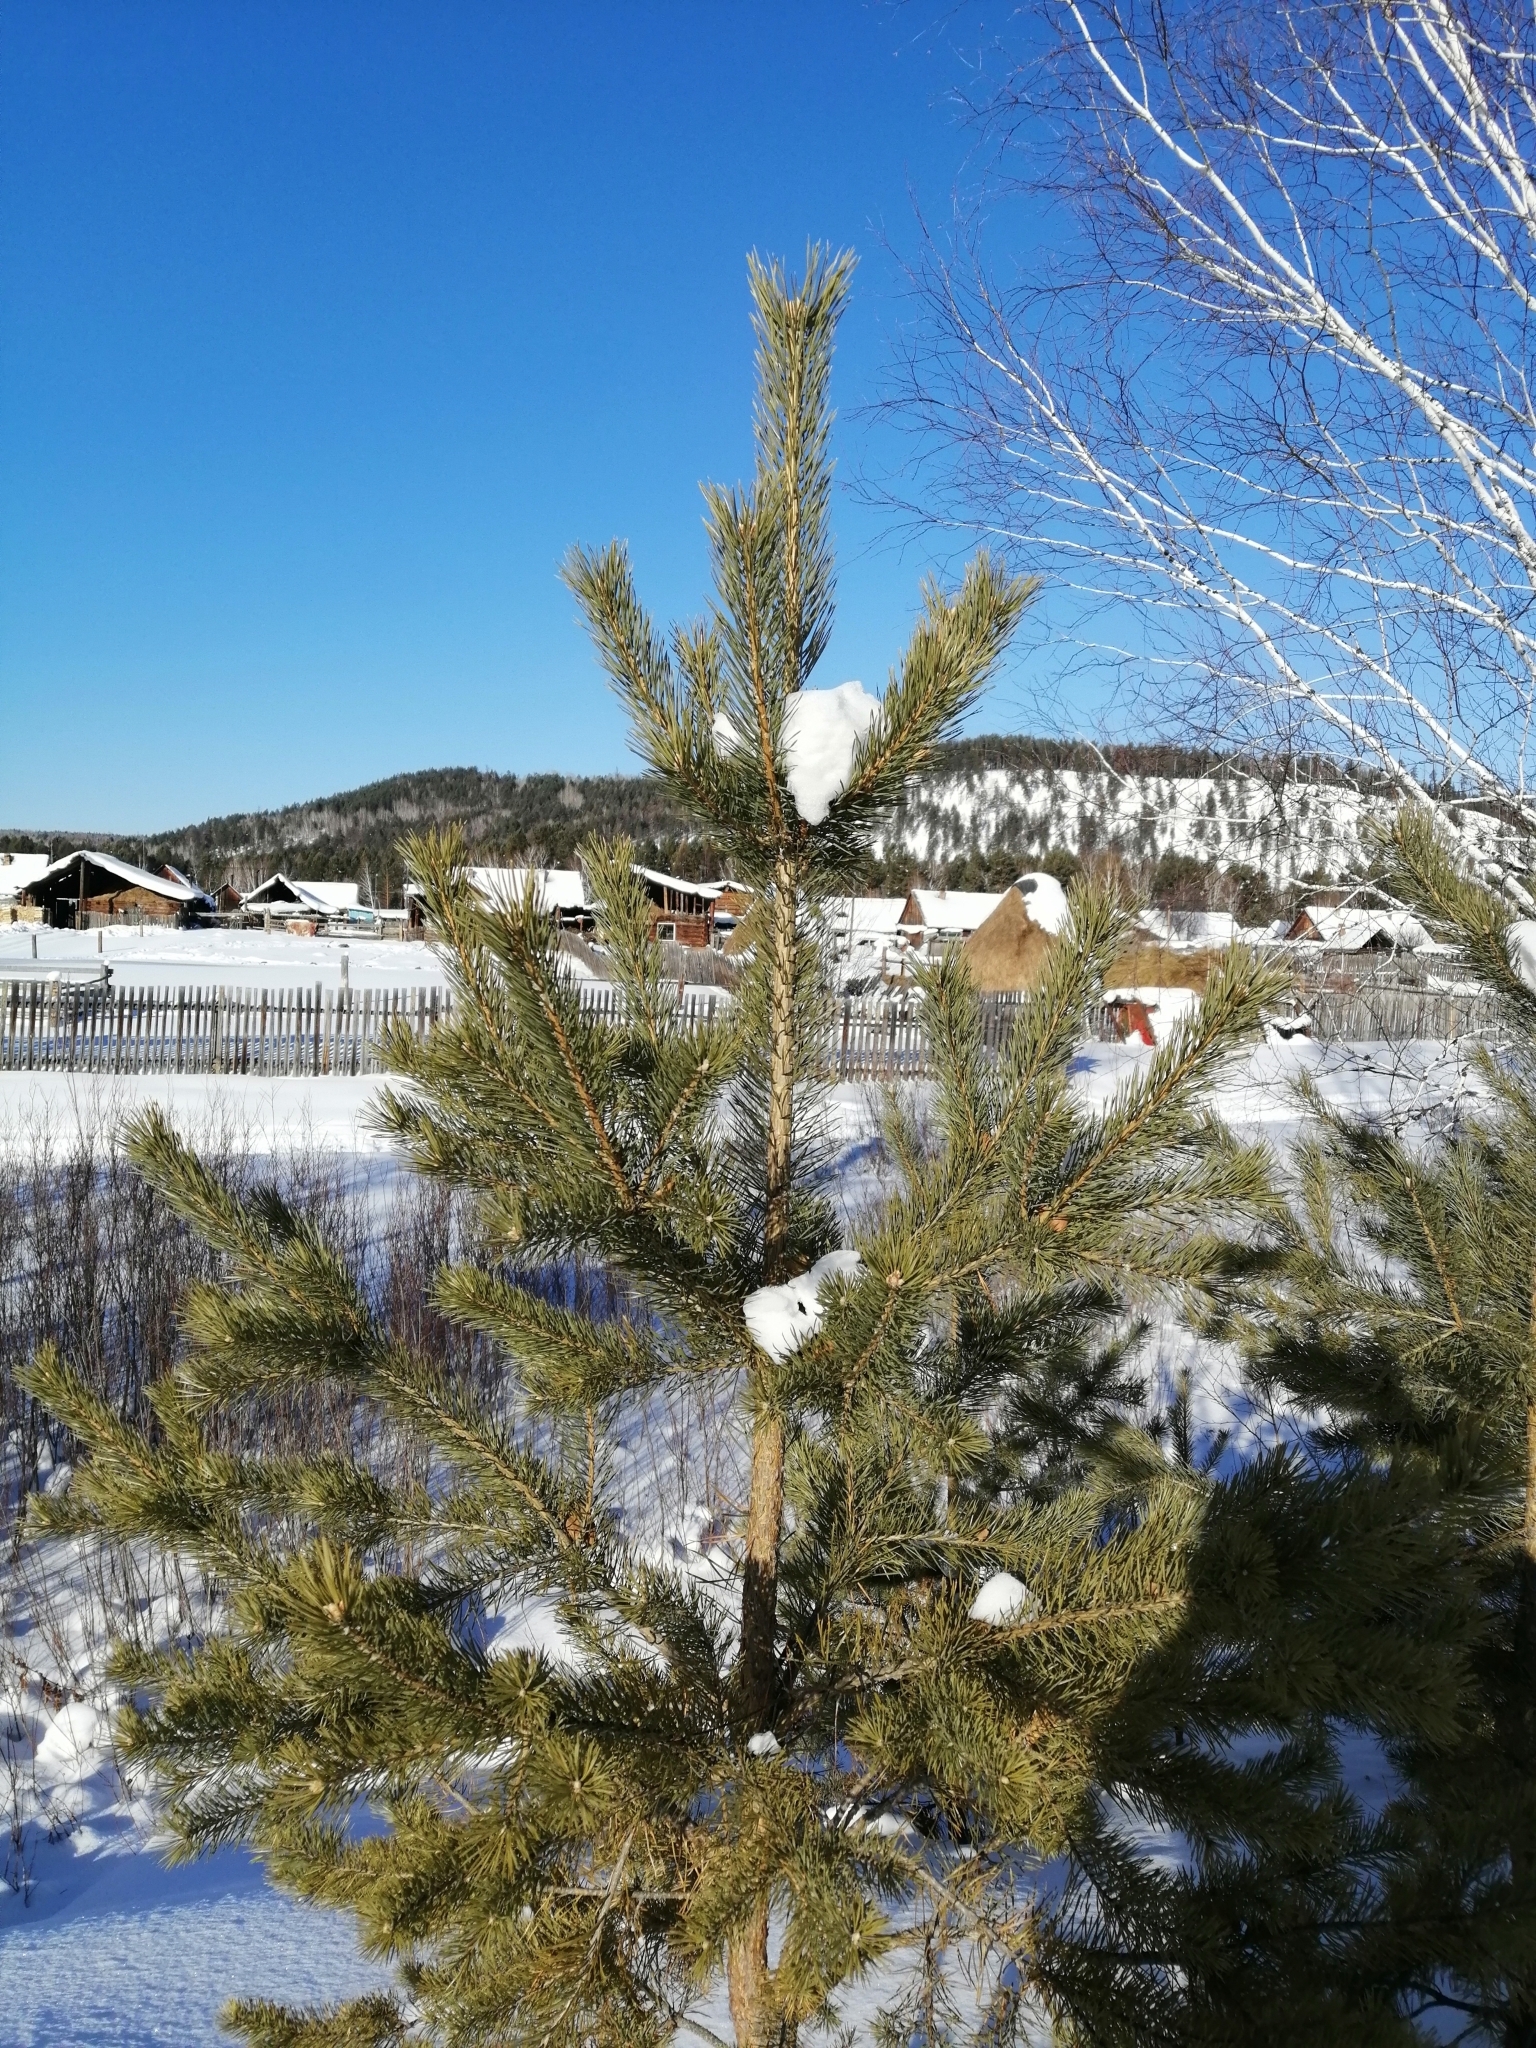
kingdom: Plantae
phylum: Tracheophyta
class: Pinopsida
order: Pinales
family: Pinaceae
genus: Pinus
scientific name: Pinus sylvestris
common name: Scots pine
